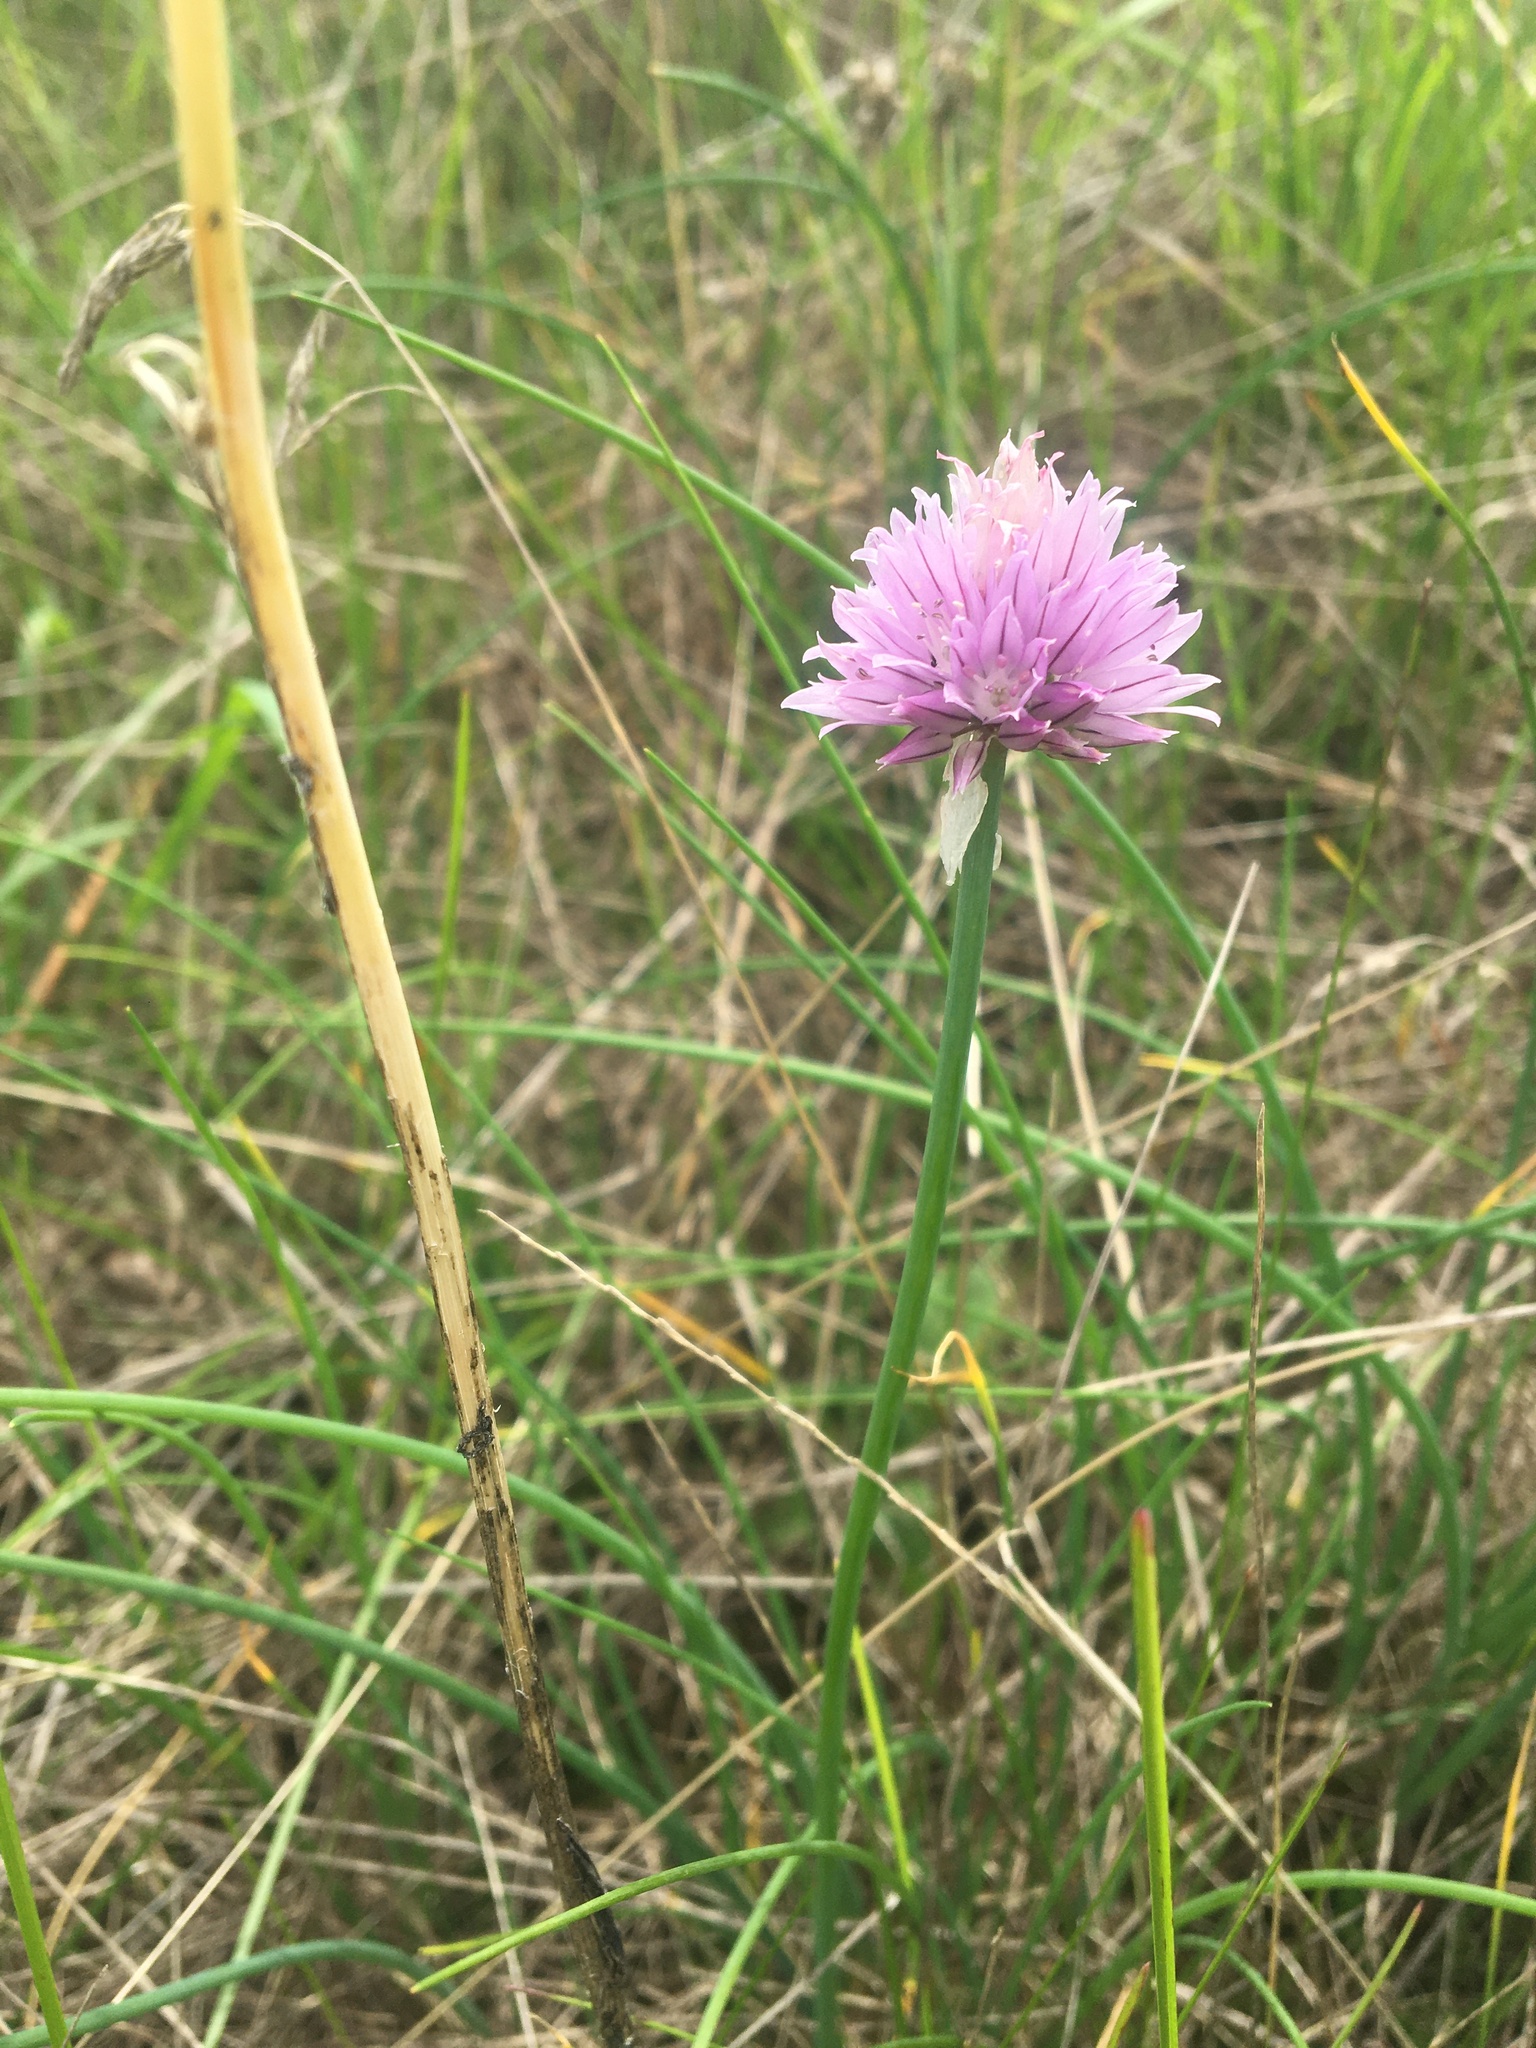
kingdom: Plantae
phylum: Tracheophyta
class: Liliopsida
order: Asparagales
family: Amaryllidaceae
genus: Allium
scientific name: Allium schoenoprasum
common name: Chives
